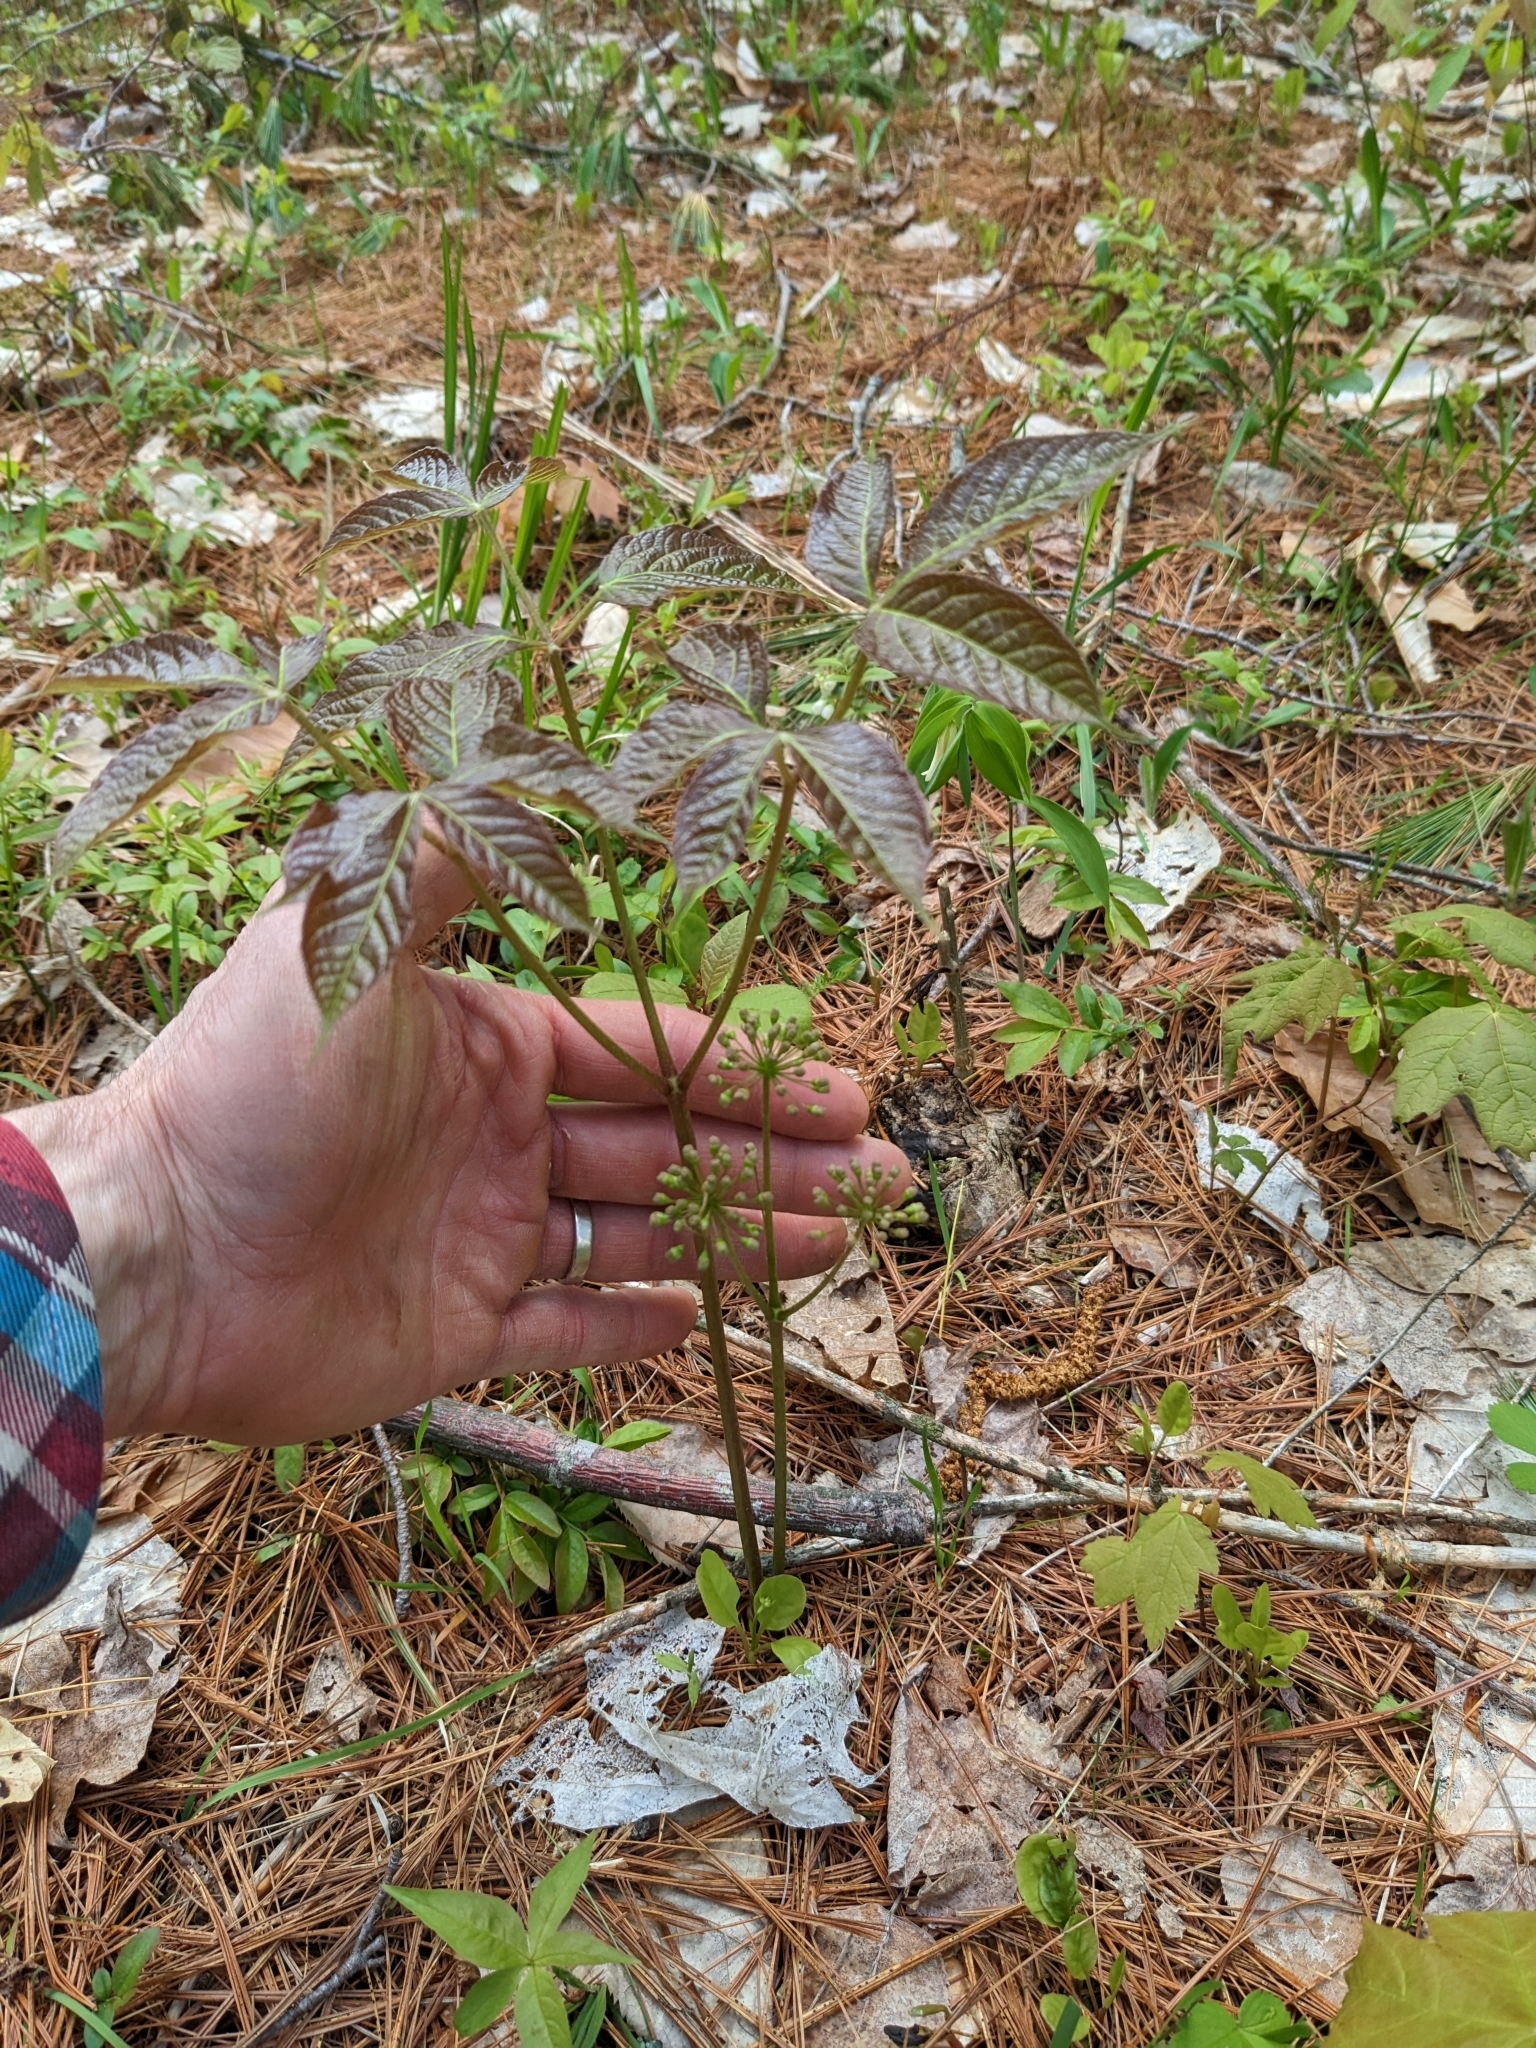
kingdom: Plantae
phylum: Tracheophyta
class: Magnoliopsida
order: Apiales
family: Araliaceae
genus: Aralia
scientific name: Aralia nudicaulis
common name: Wild sarsaparilla
